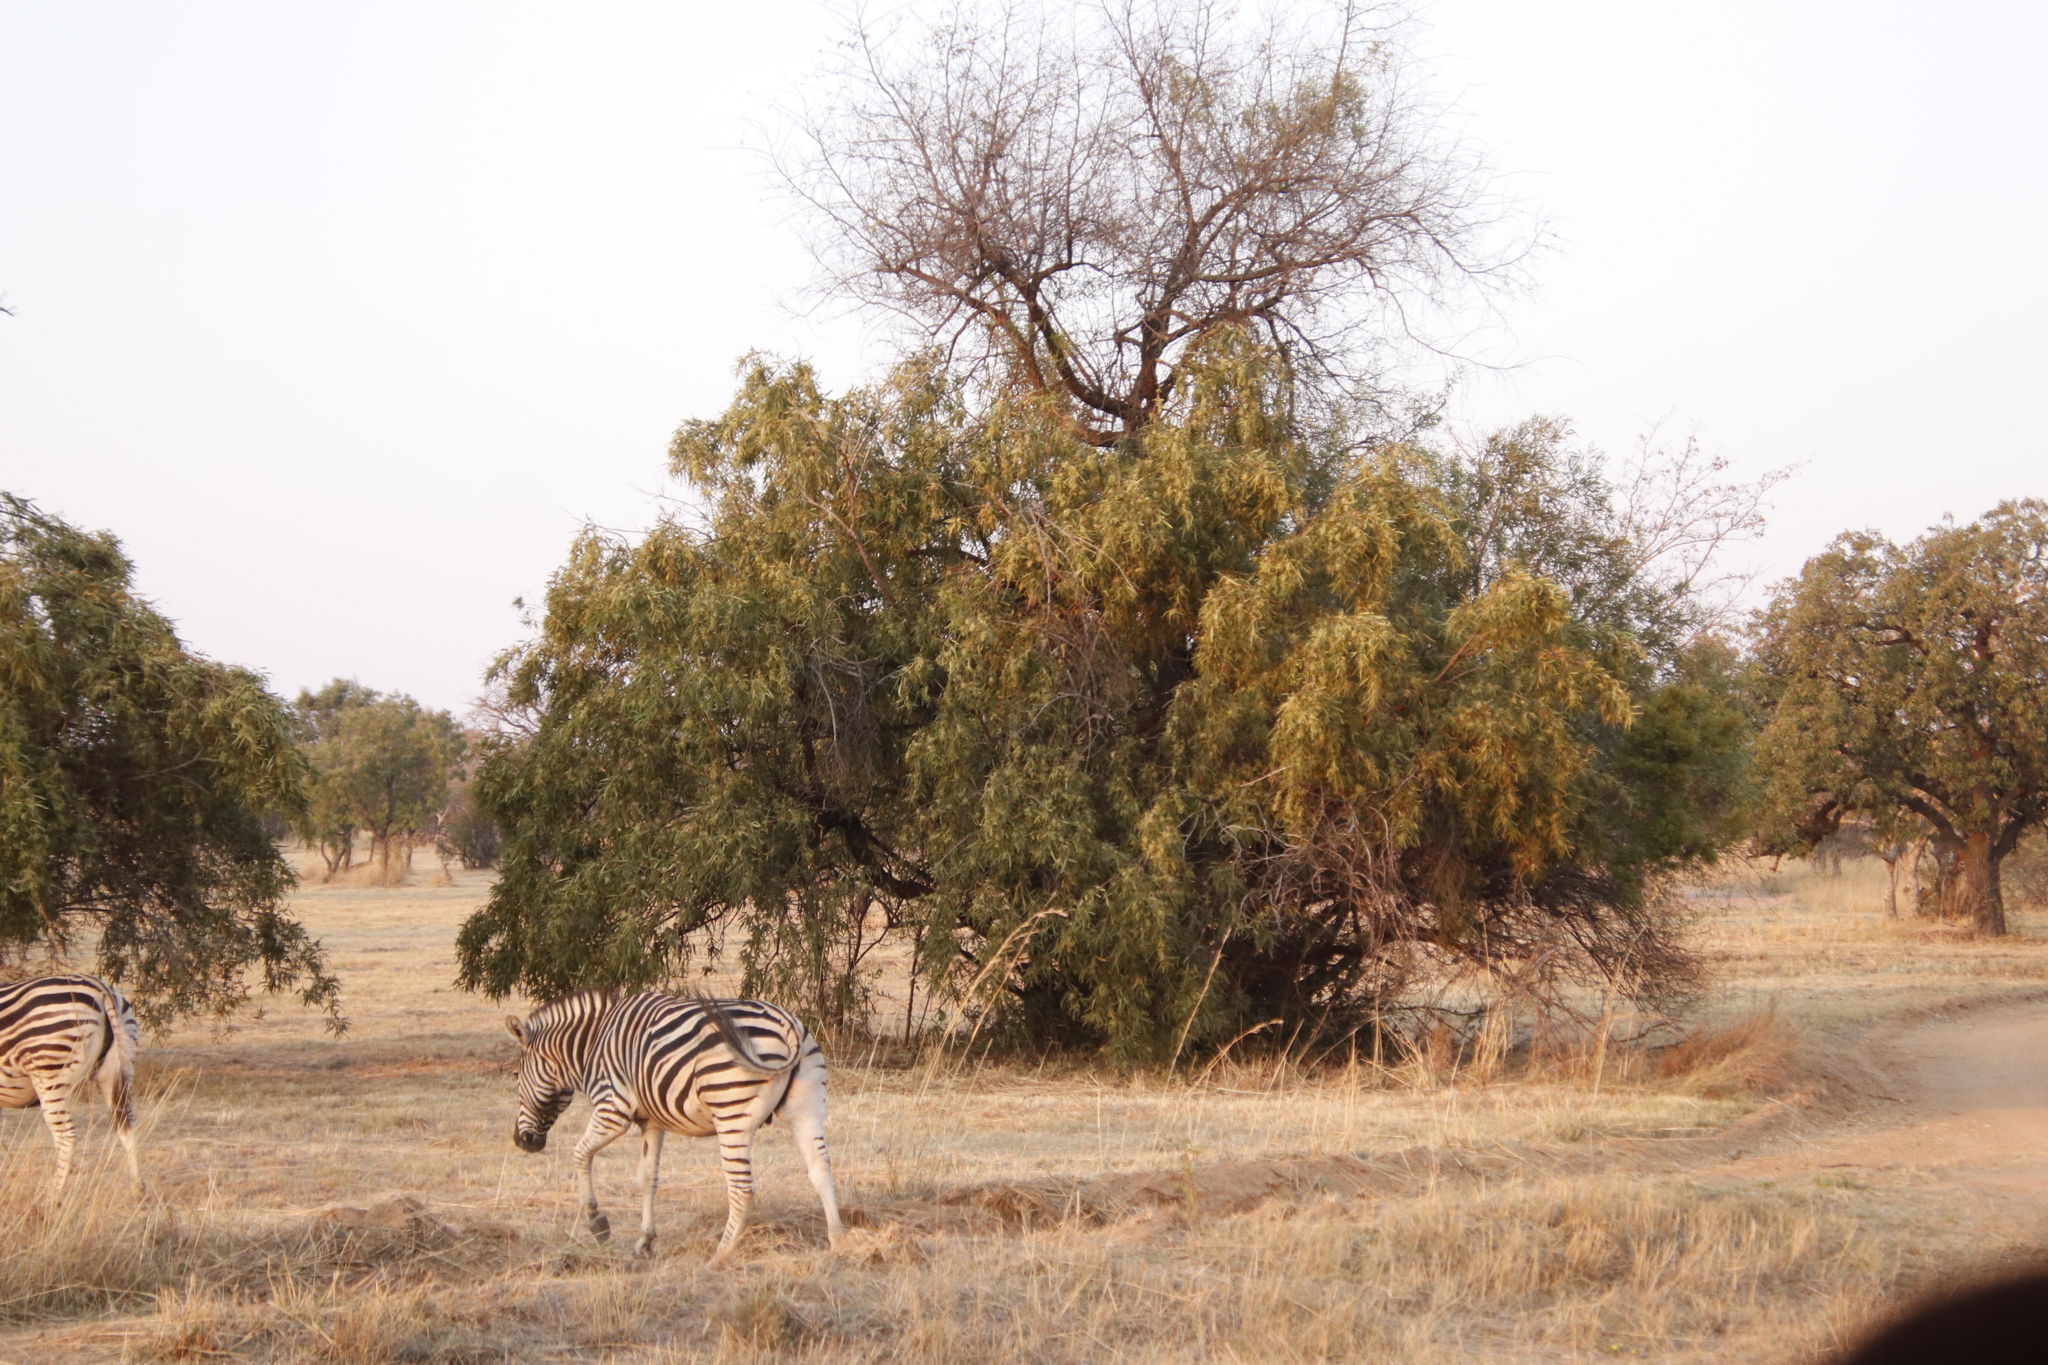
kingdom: Plantae
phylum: Tracheophyta
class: Magnoliopsida
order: Sapindales
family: Anacardiaceae
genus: Searsia
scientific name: Searsia lancea
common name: Cashew
